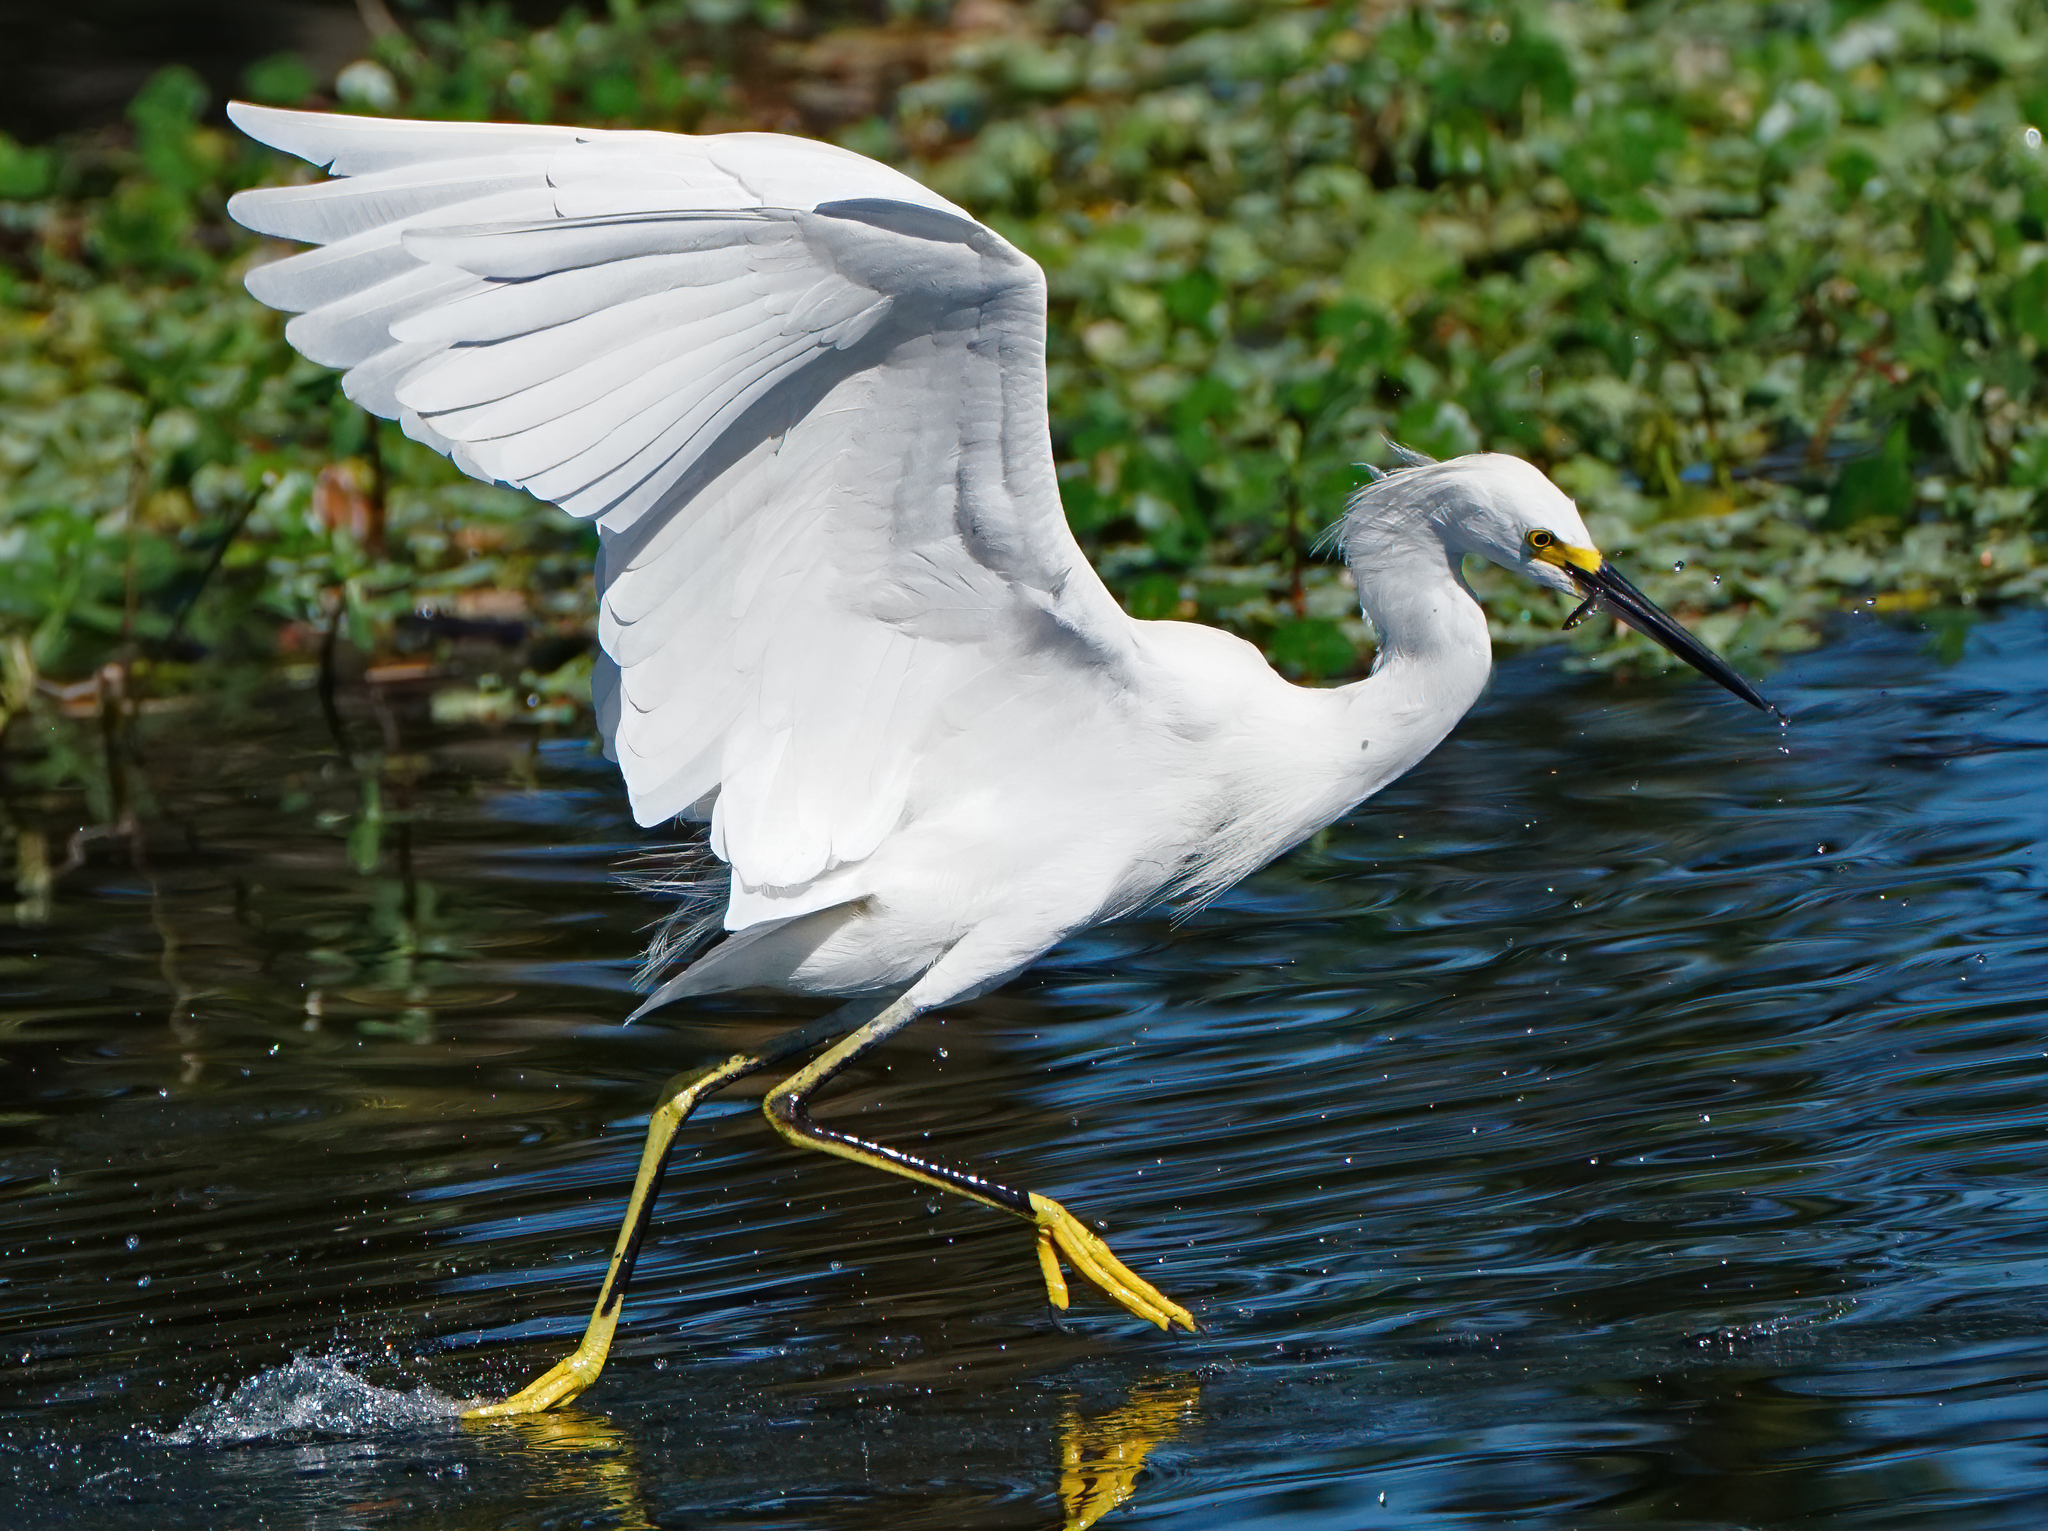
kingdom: Animalia
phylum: Chordata
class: Aves
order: Pelecaniformes
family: Ardeidae
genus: Egretta
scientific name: Egretta thula
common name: Snowy egret
